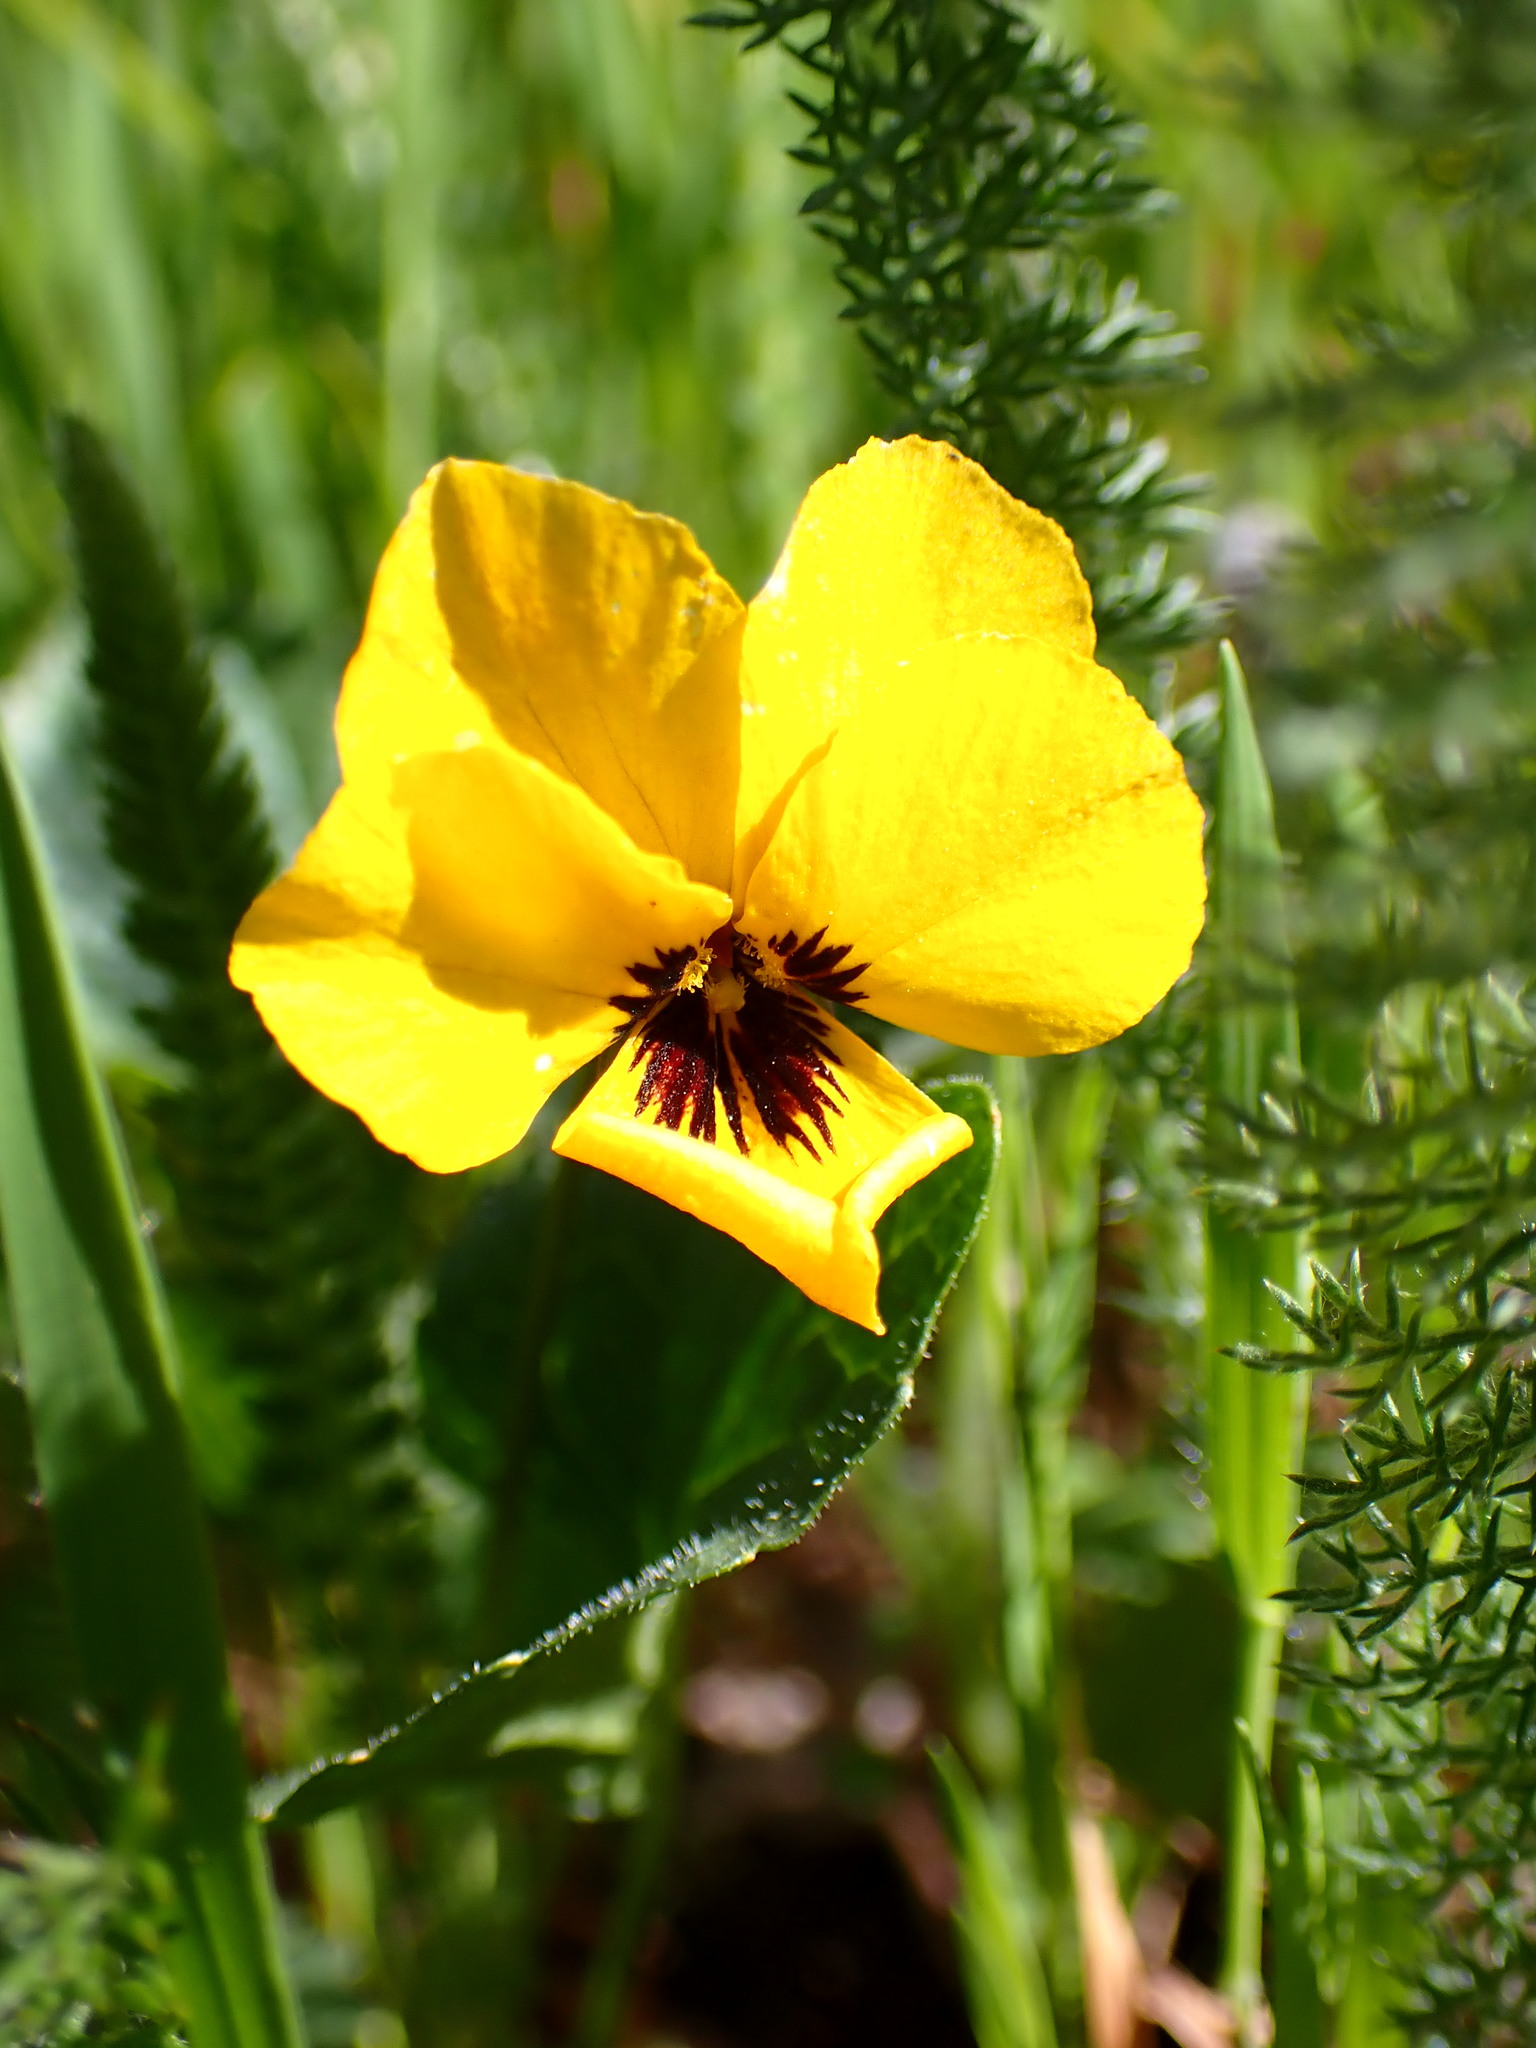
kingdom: Plantae
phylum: Tracheophyta
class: Magnoliopsida
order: Malpighiales
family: Violaceae
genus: Viola
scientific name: Viola pedunculata
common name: California golden violet
